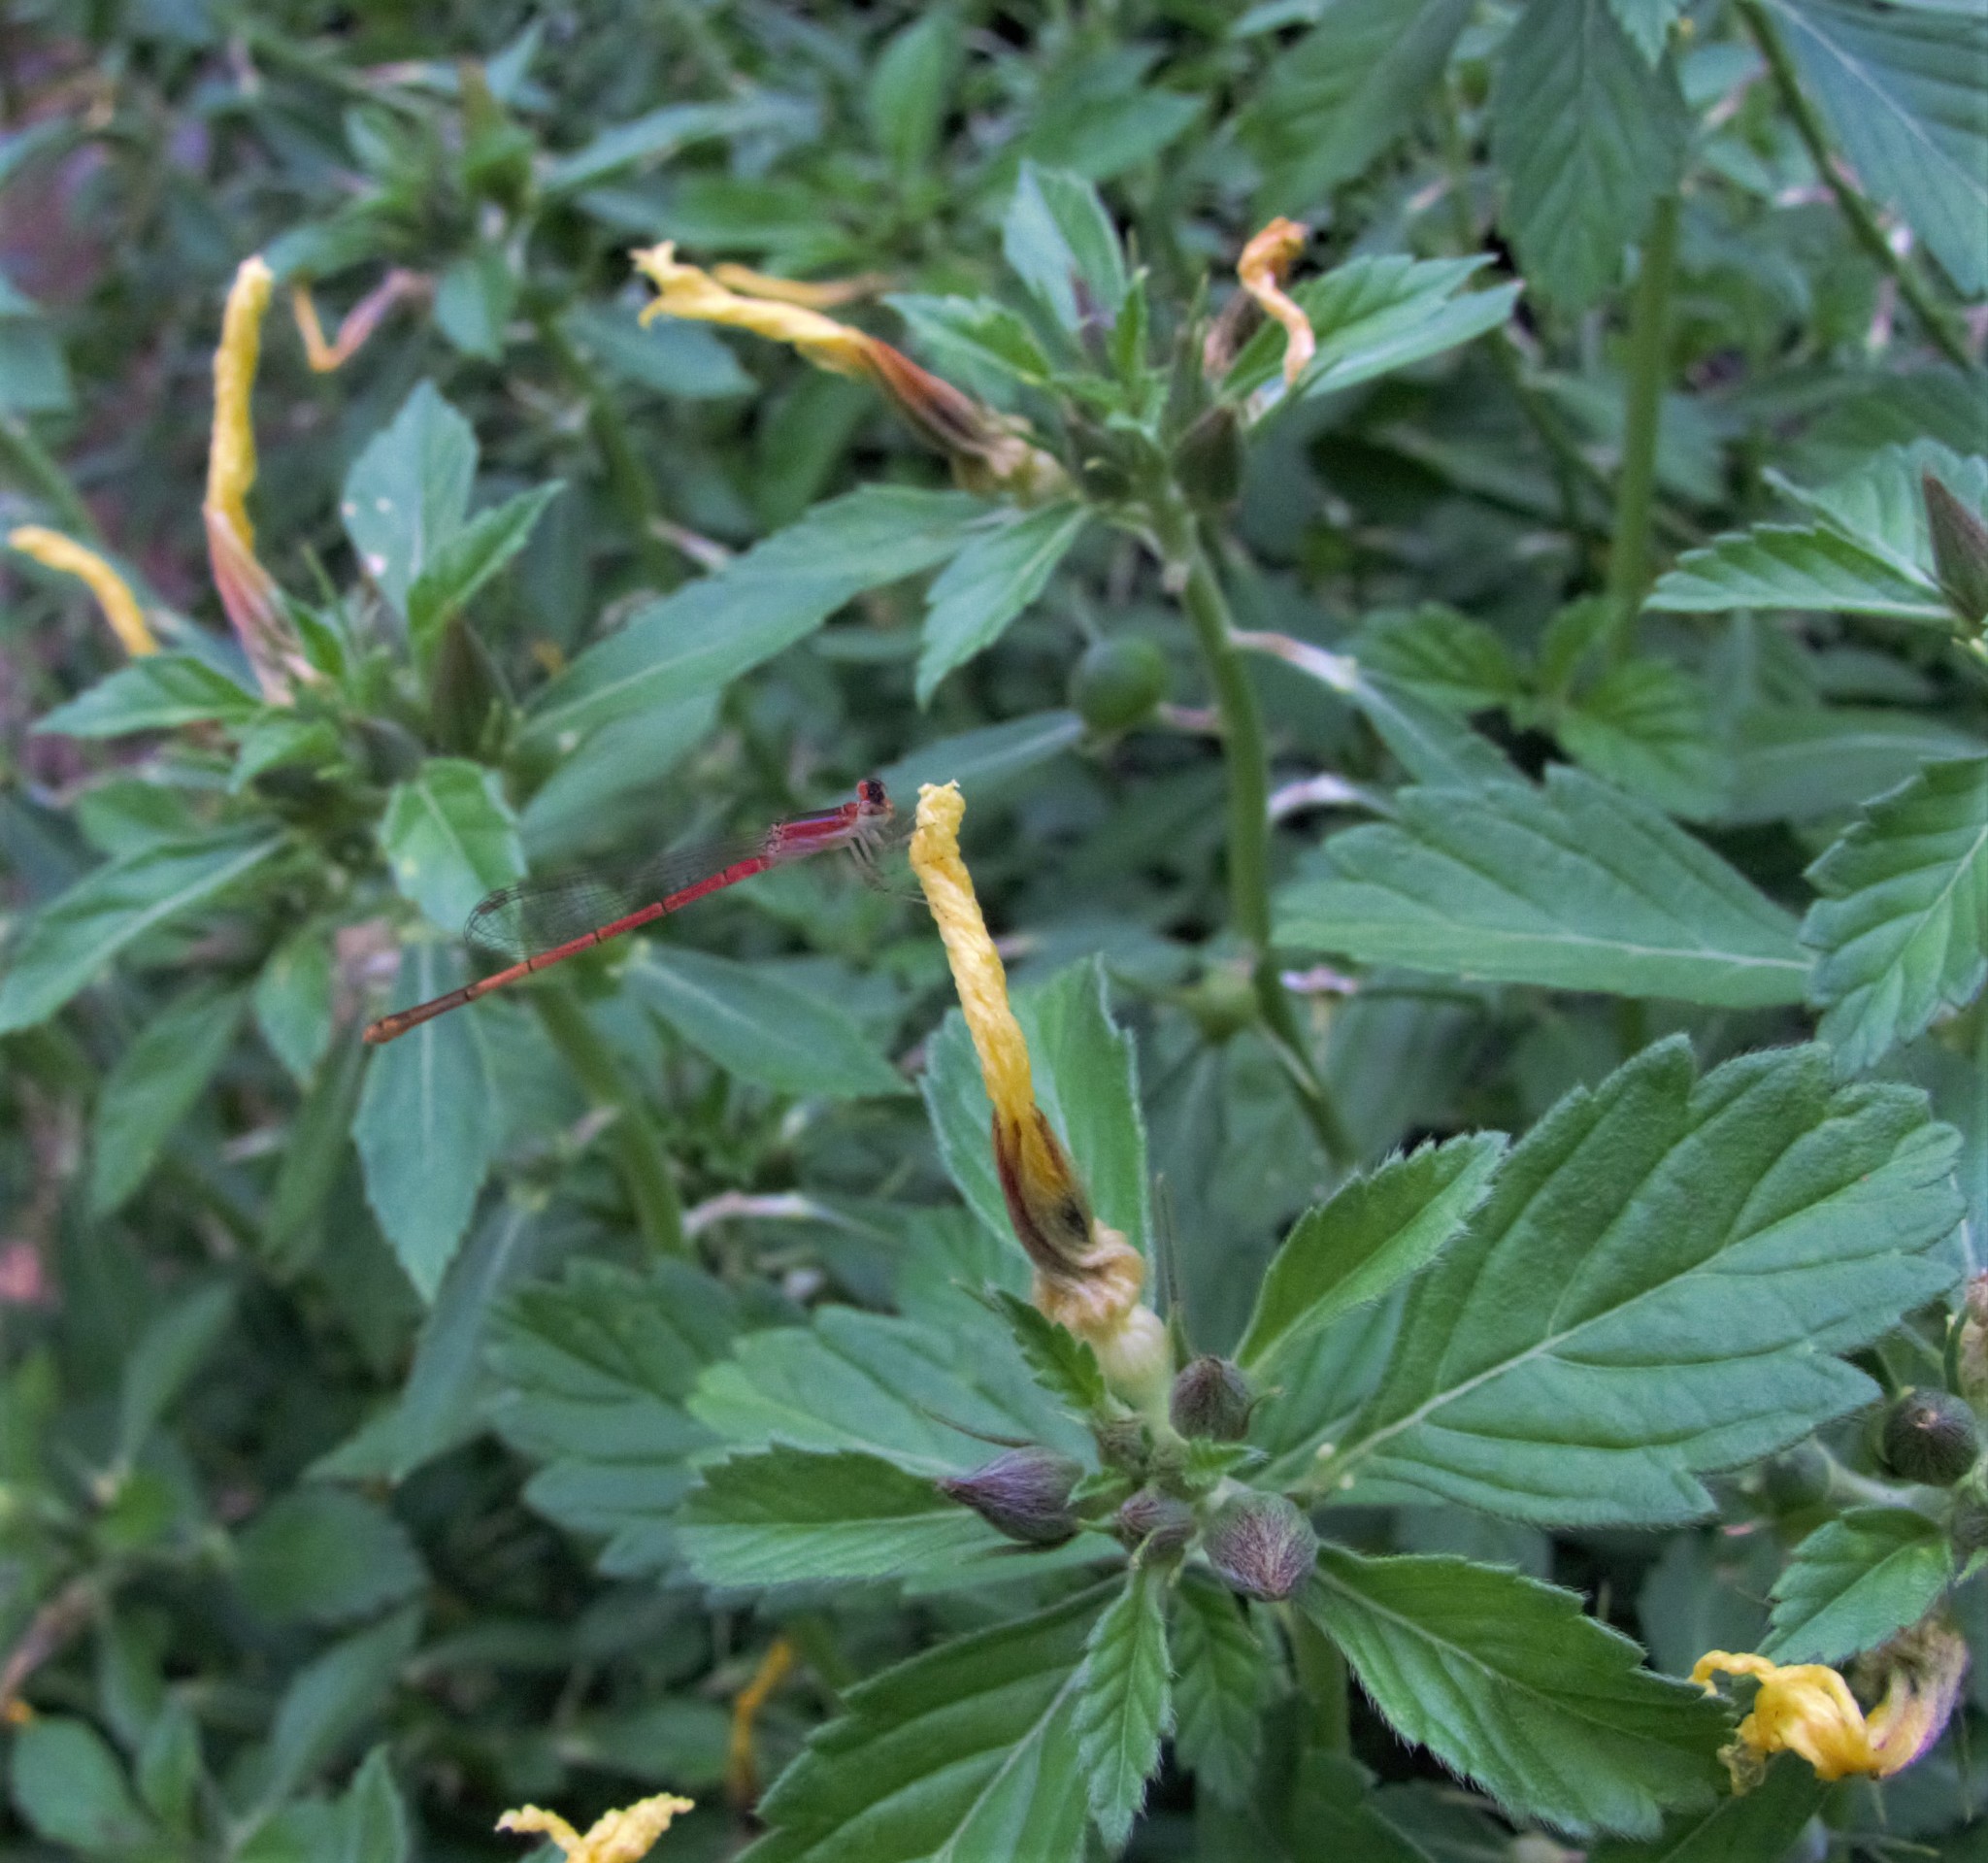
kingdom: Animalia
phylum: Arthropoda
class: Insecta
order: Odonata
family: Coenagrionidae
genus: Agriocnemis
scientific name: Agriocnemis pygmaea
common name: Pygmy wisp
